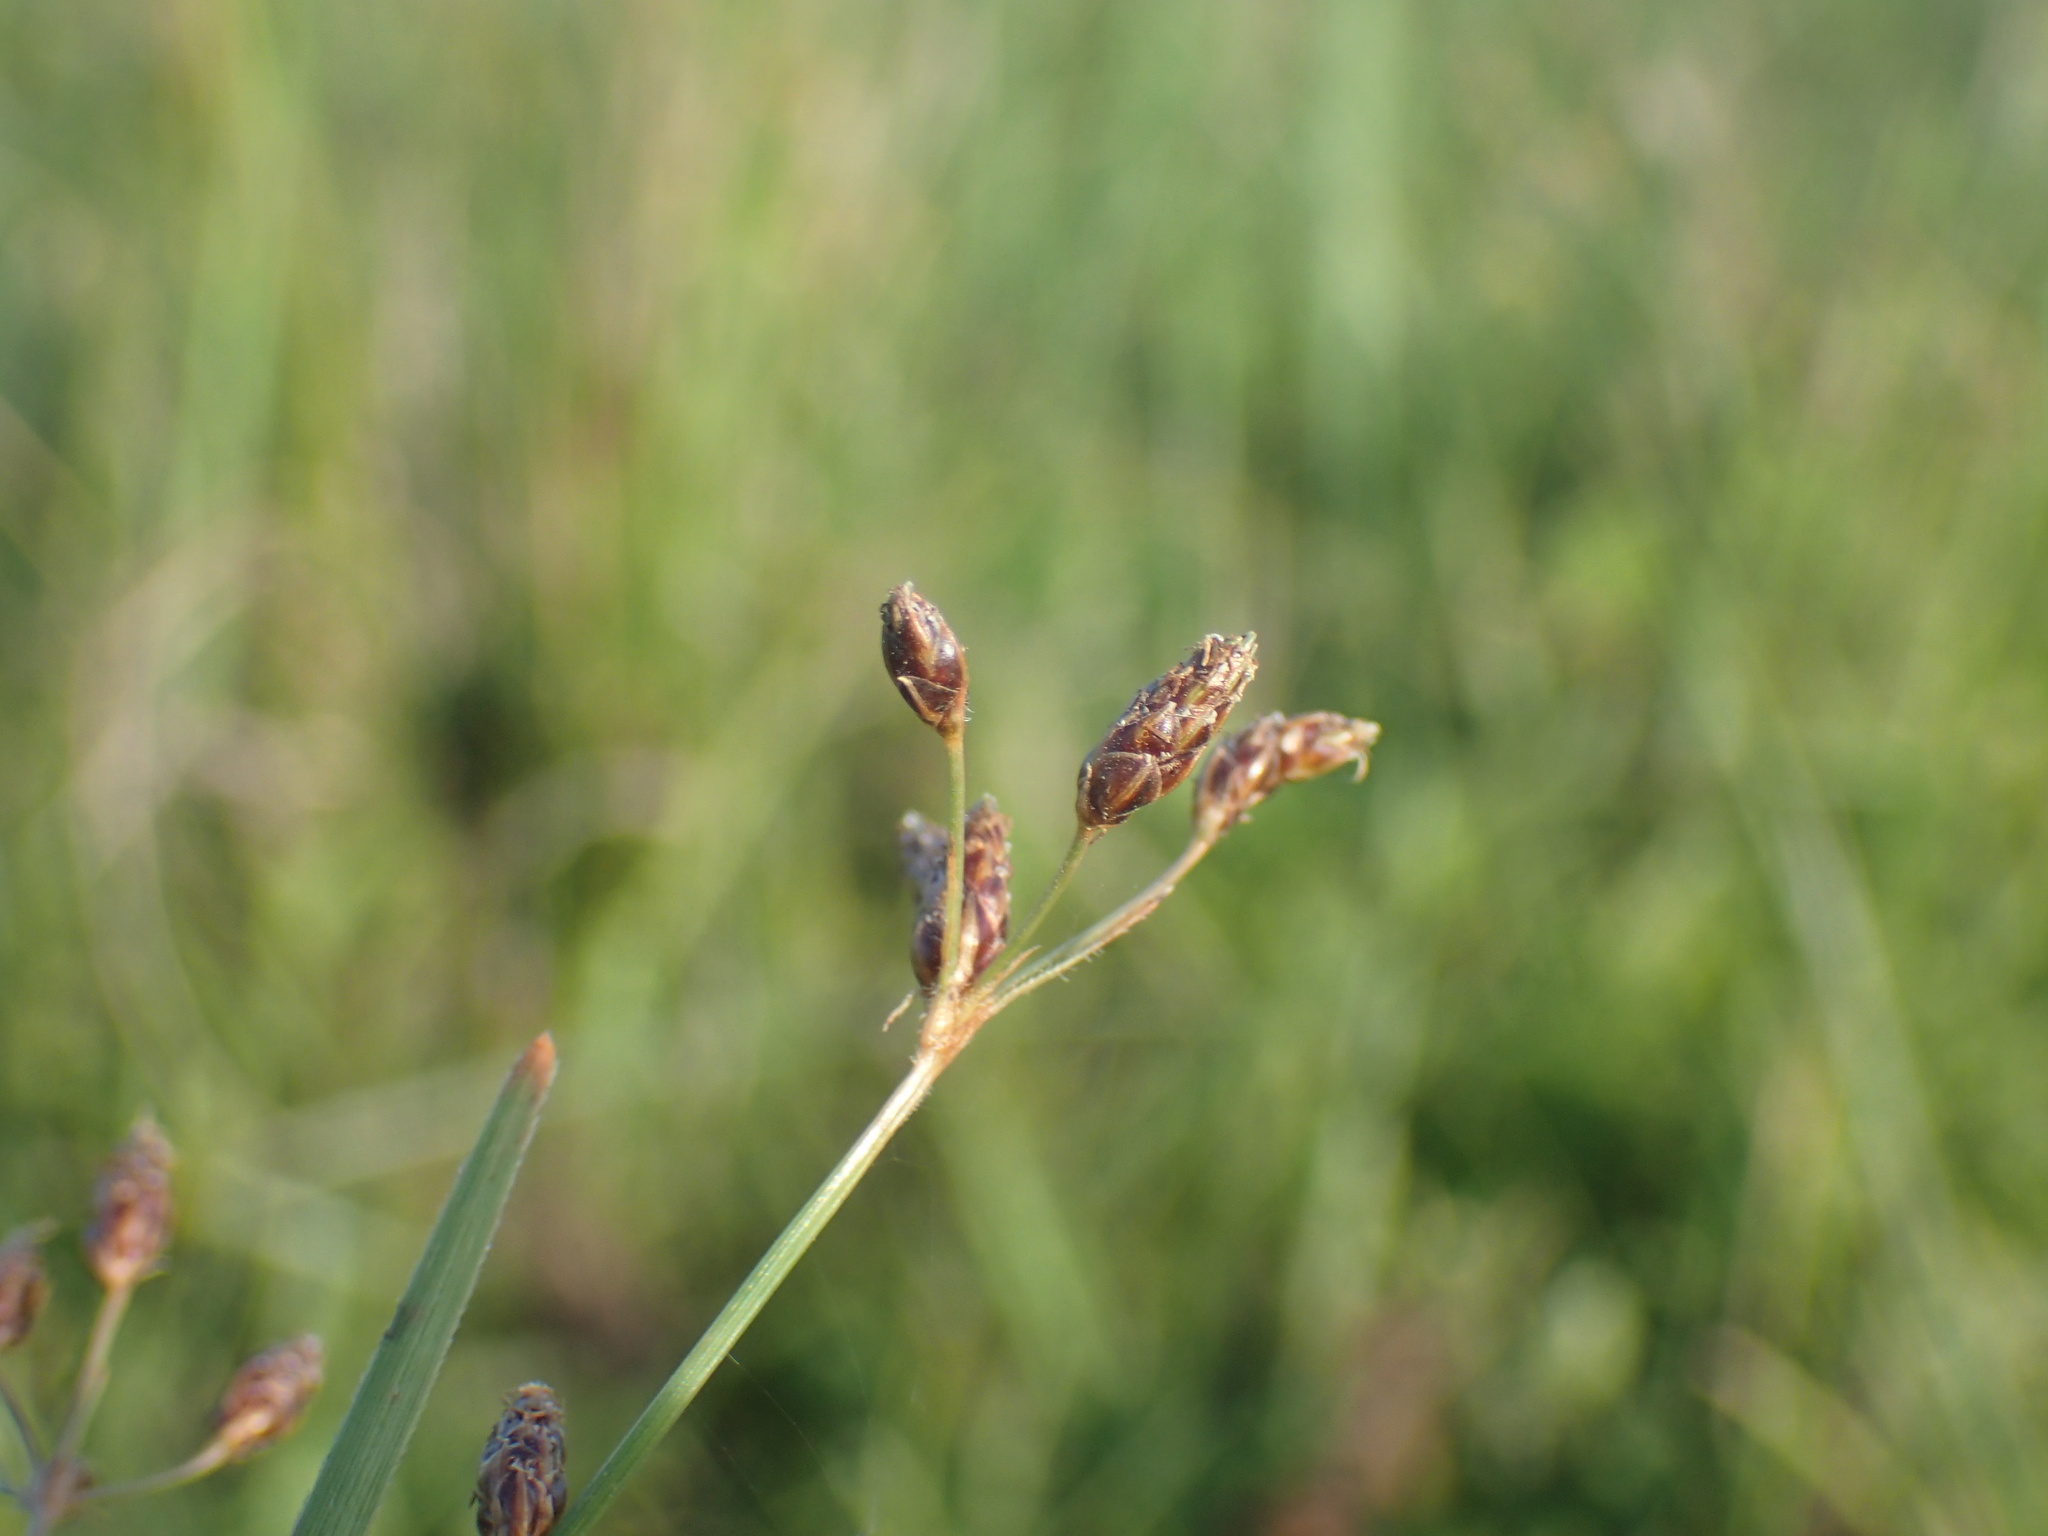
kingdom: Plantae
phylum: Tracheophyta
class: Liliopsida
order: Poales
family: Cyperaceae
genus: Fimbristylis
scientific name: Fimbristylis dichotoma
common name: Forked fimbry
